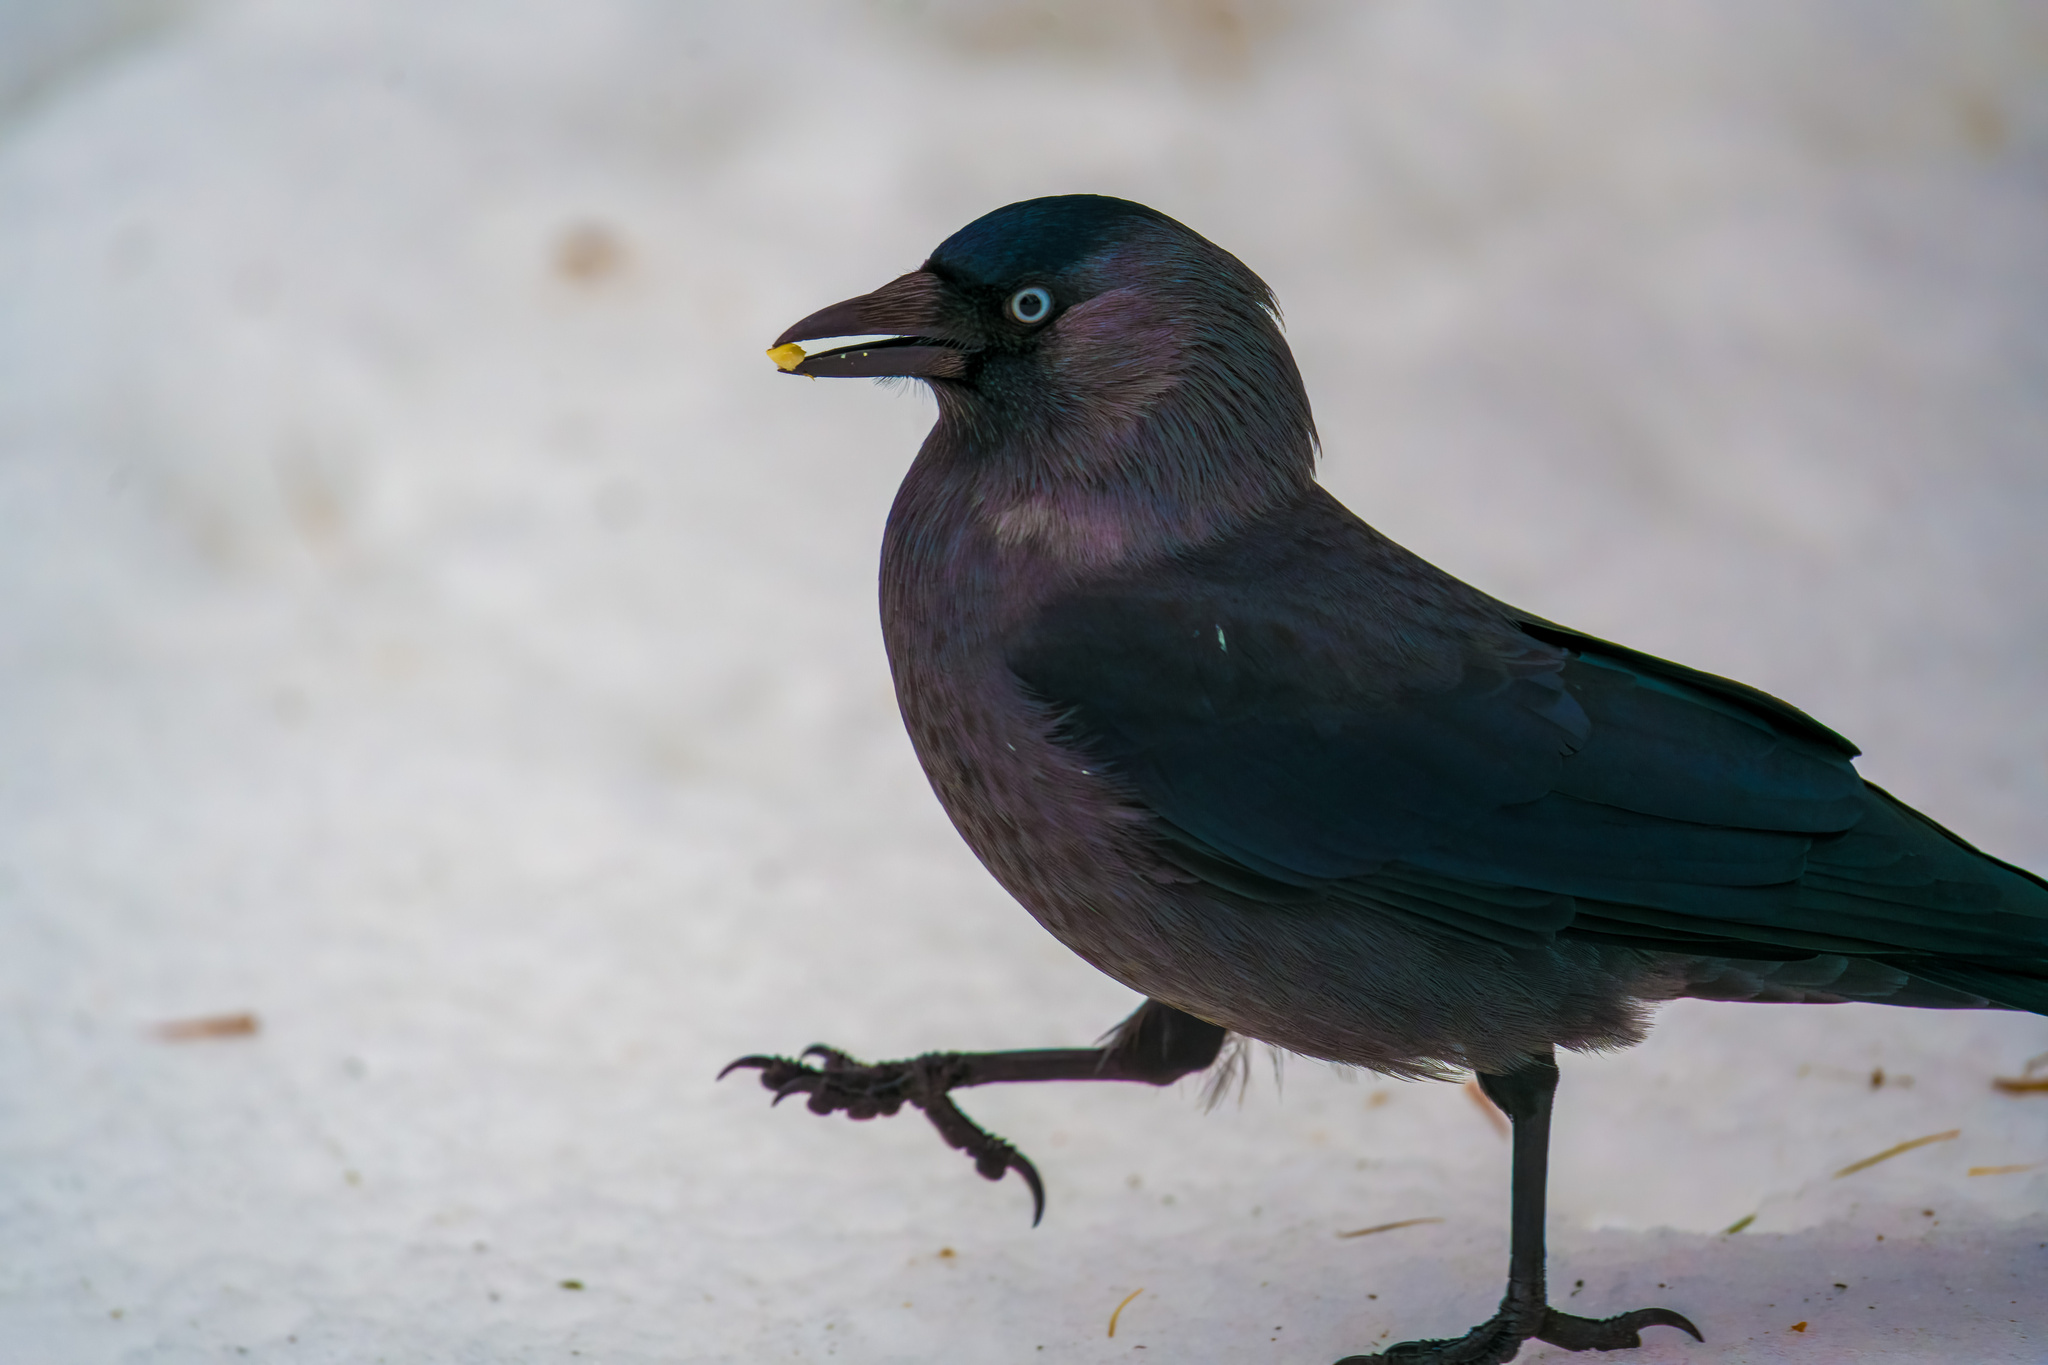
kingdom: Animalia
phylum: Chordata
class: Aves
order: Passeriformes
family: Corvidae
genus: Coloeus
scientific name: Coloeus monedula
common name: Western jackdaw
